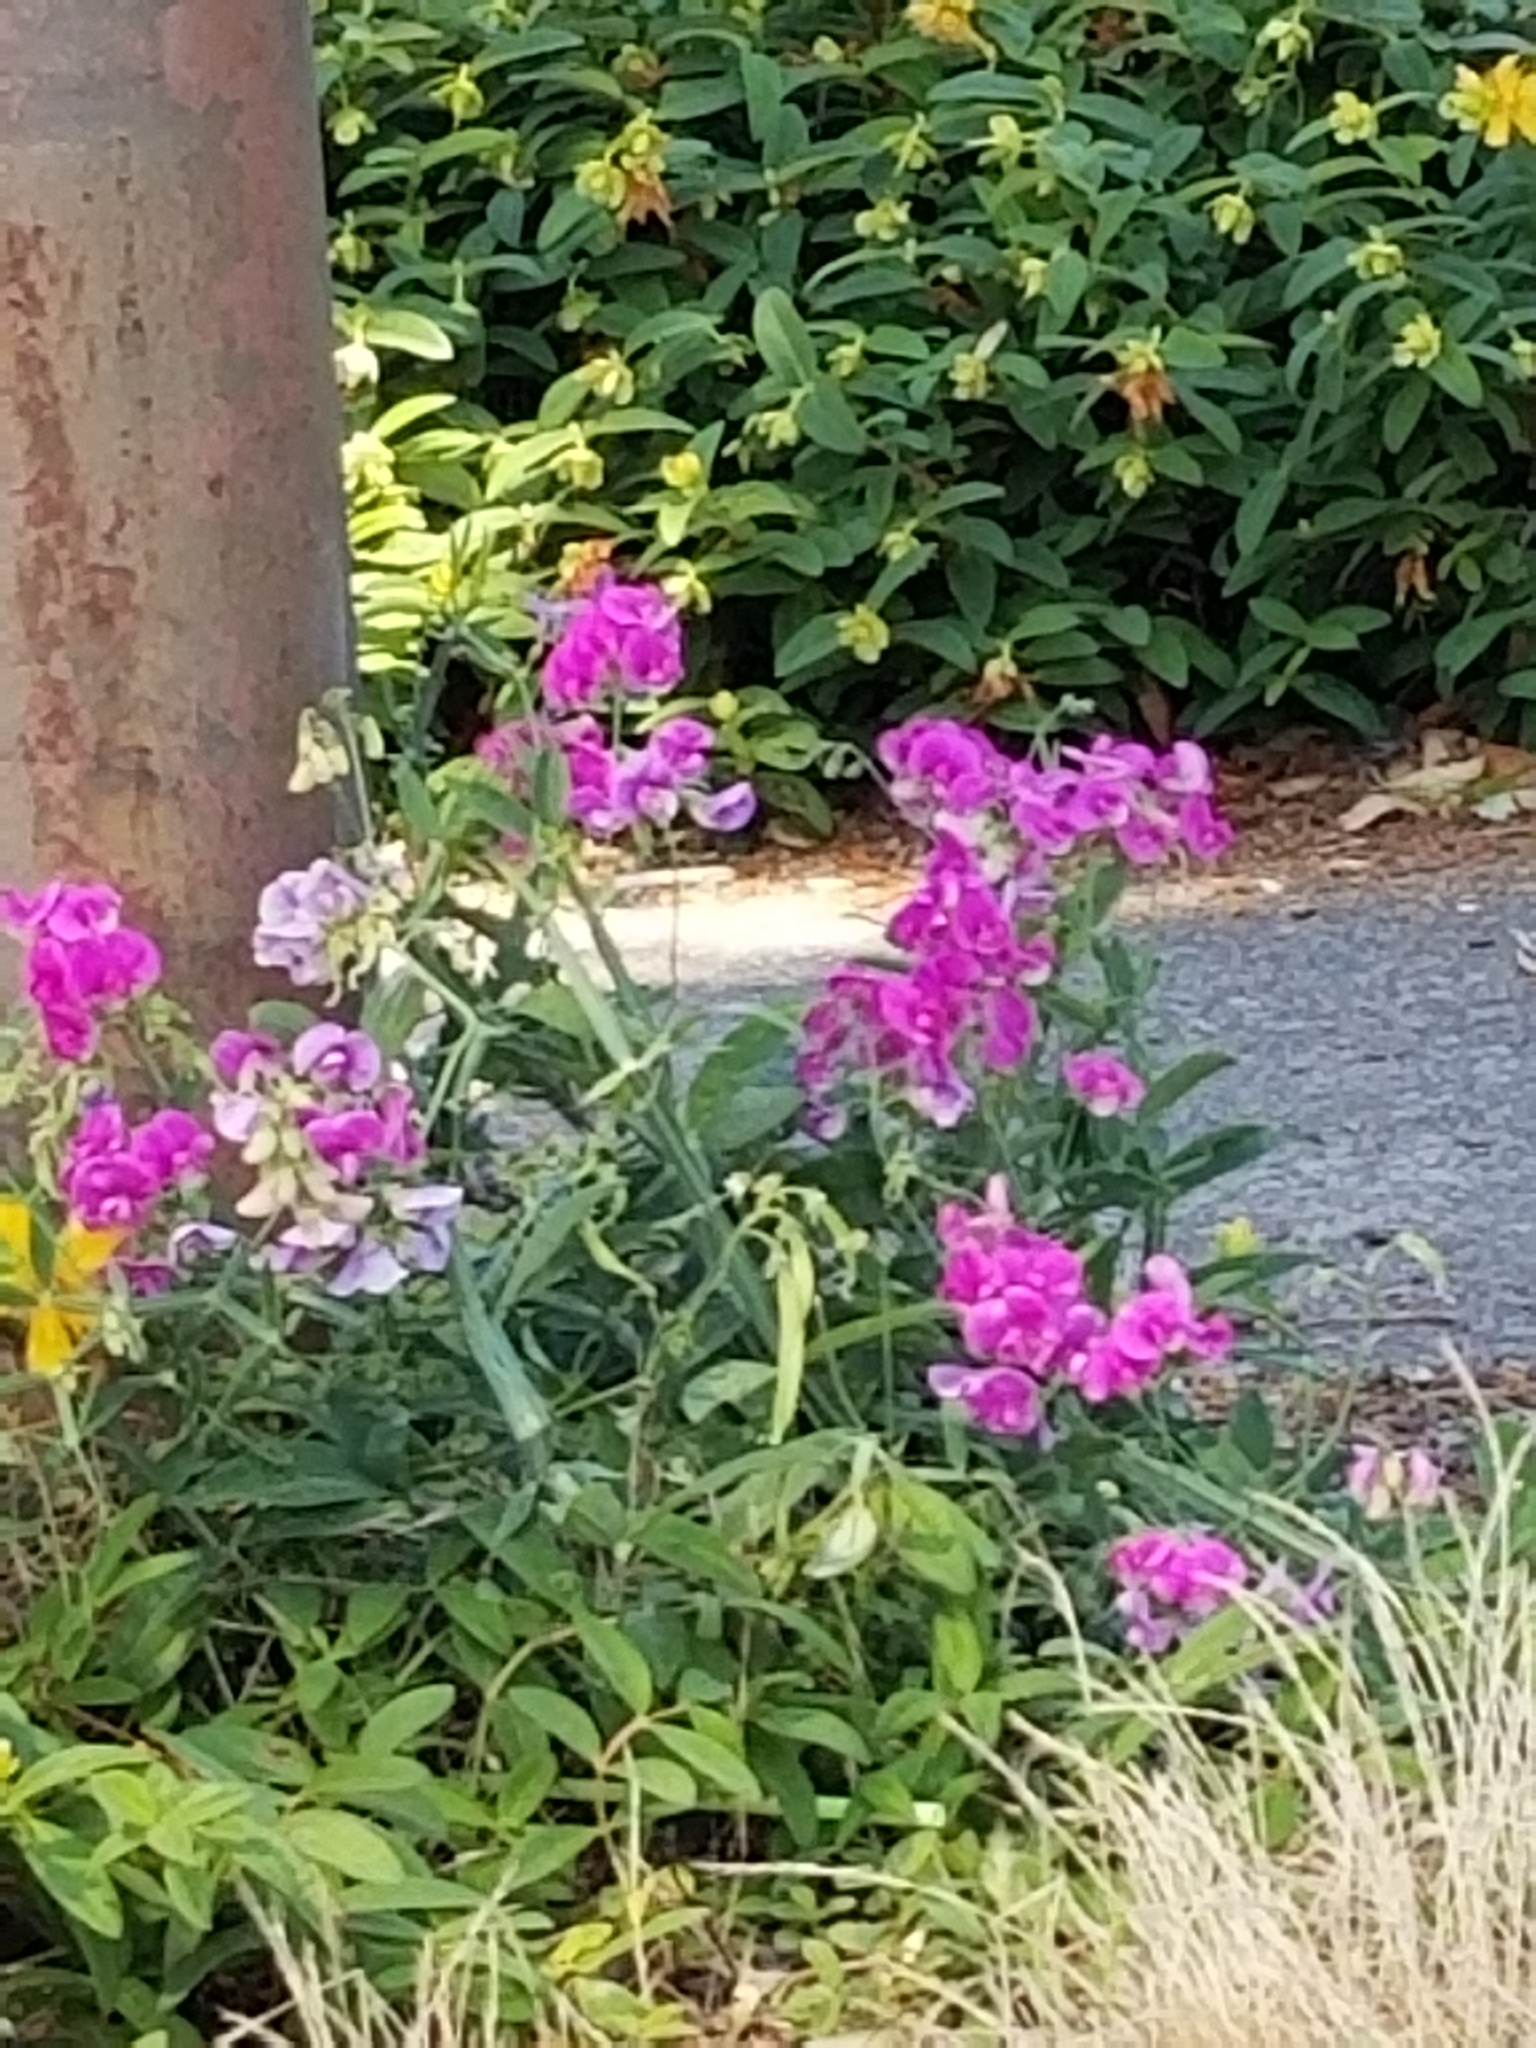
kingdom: Plantae
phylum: Tracheophyta
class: Magnoliopsida
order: Fabales
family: Fabaceae
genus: Lathyrus
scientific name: Lathyrus latifolius
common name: Perennial pea
